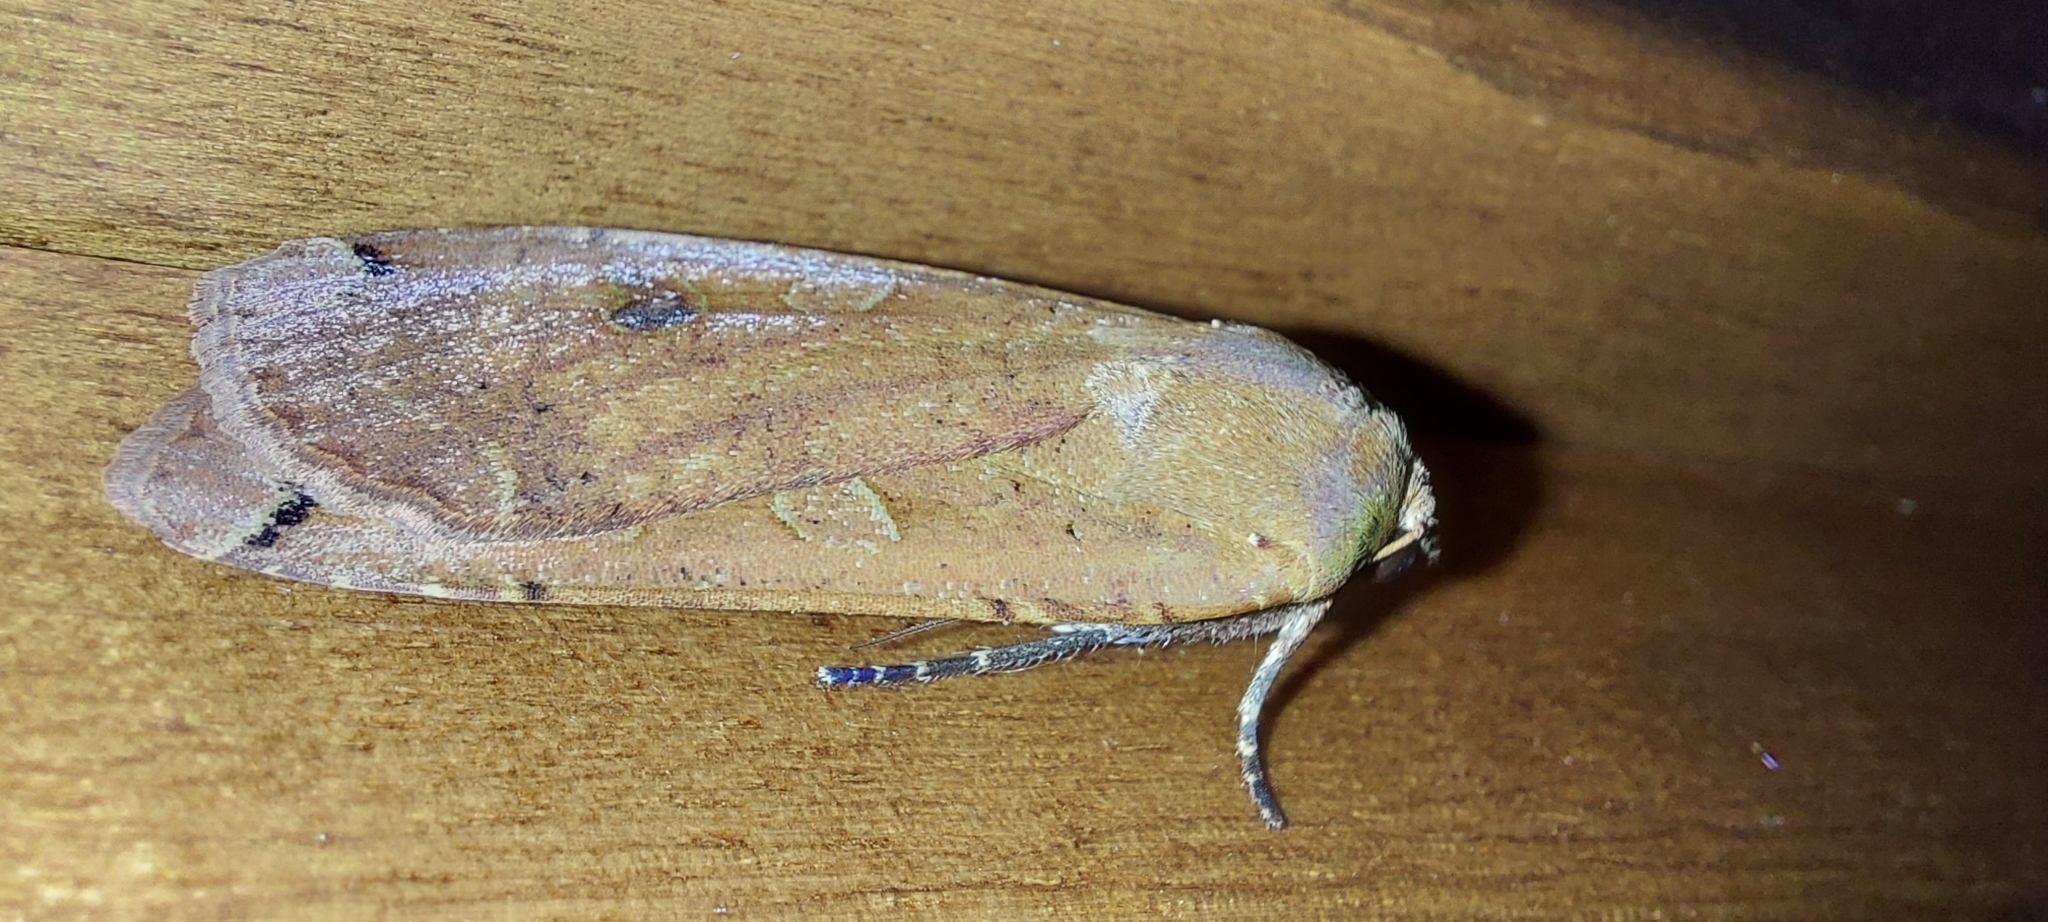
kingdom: Animalia
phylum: Arthropoda
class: Insecta
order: Lepidoptera
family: Noctuidae
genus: Noctua
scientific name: Noctua pronuba
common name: Large yellow underwing
